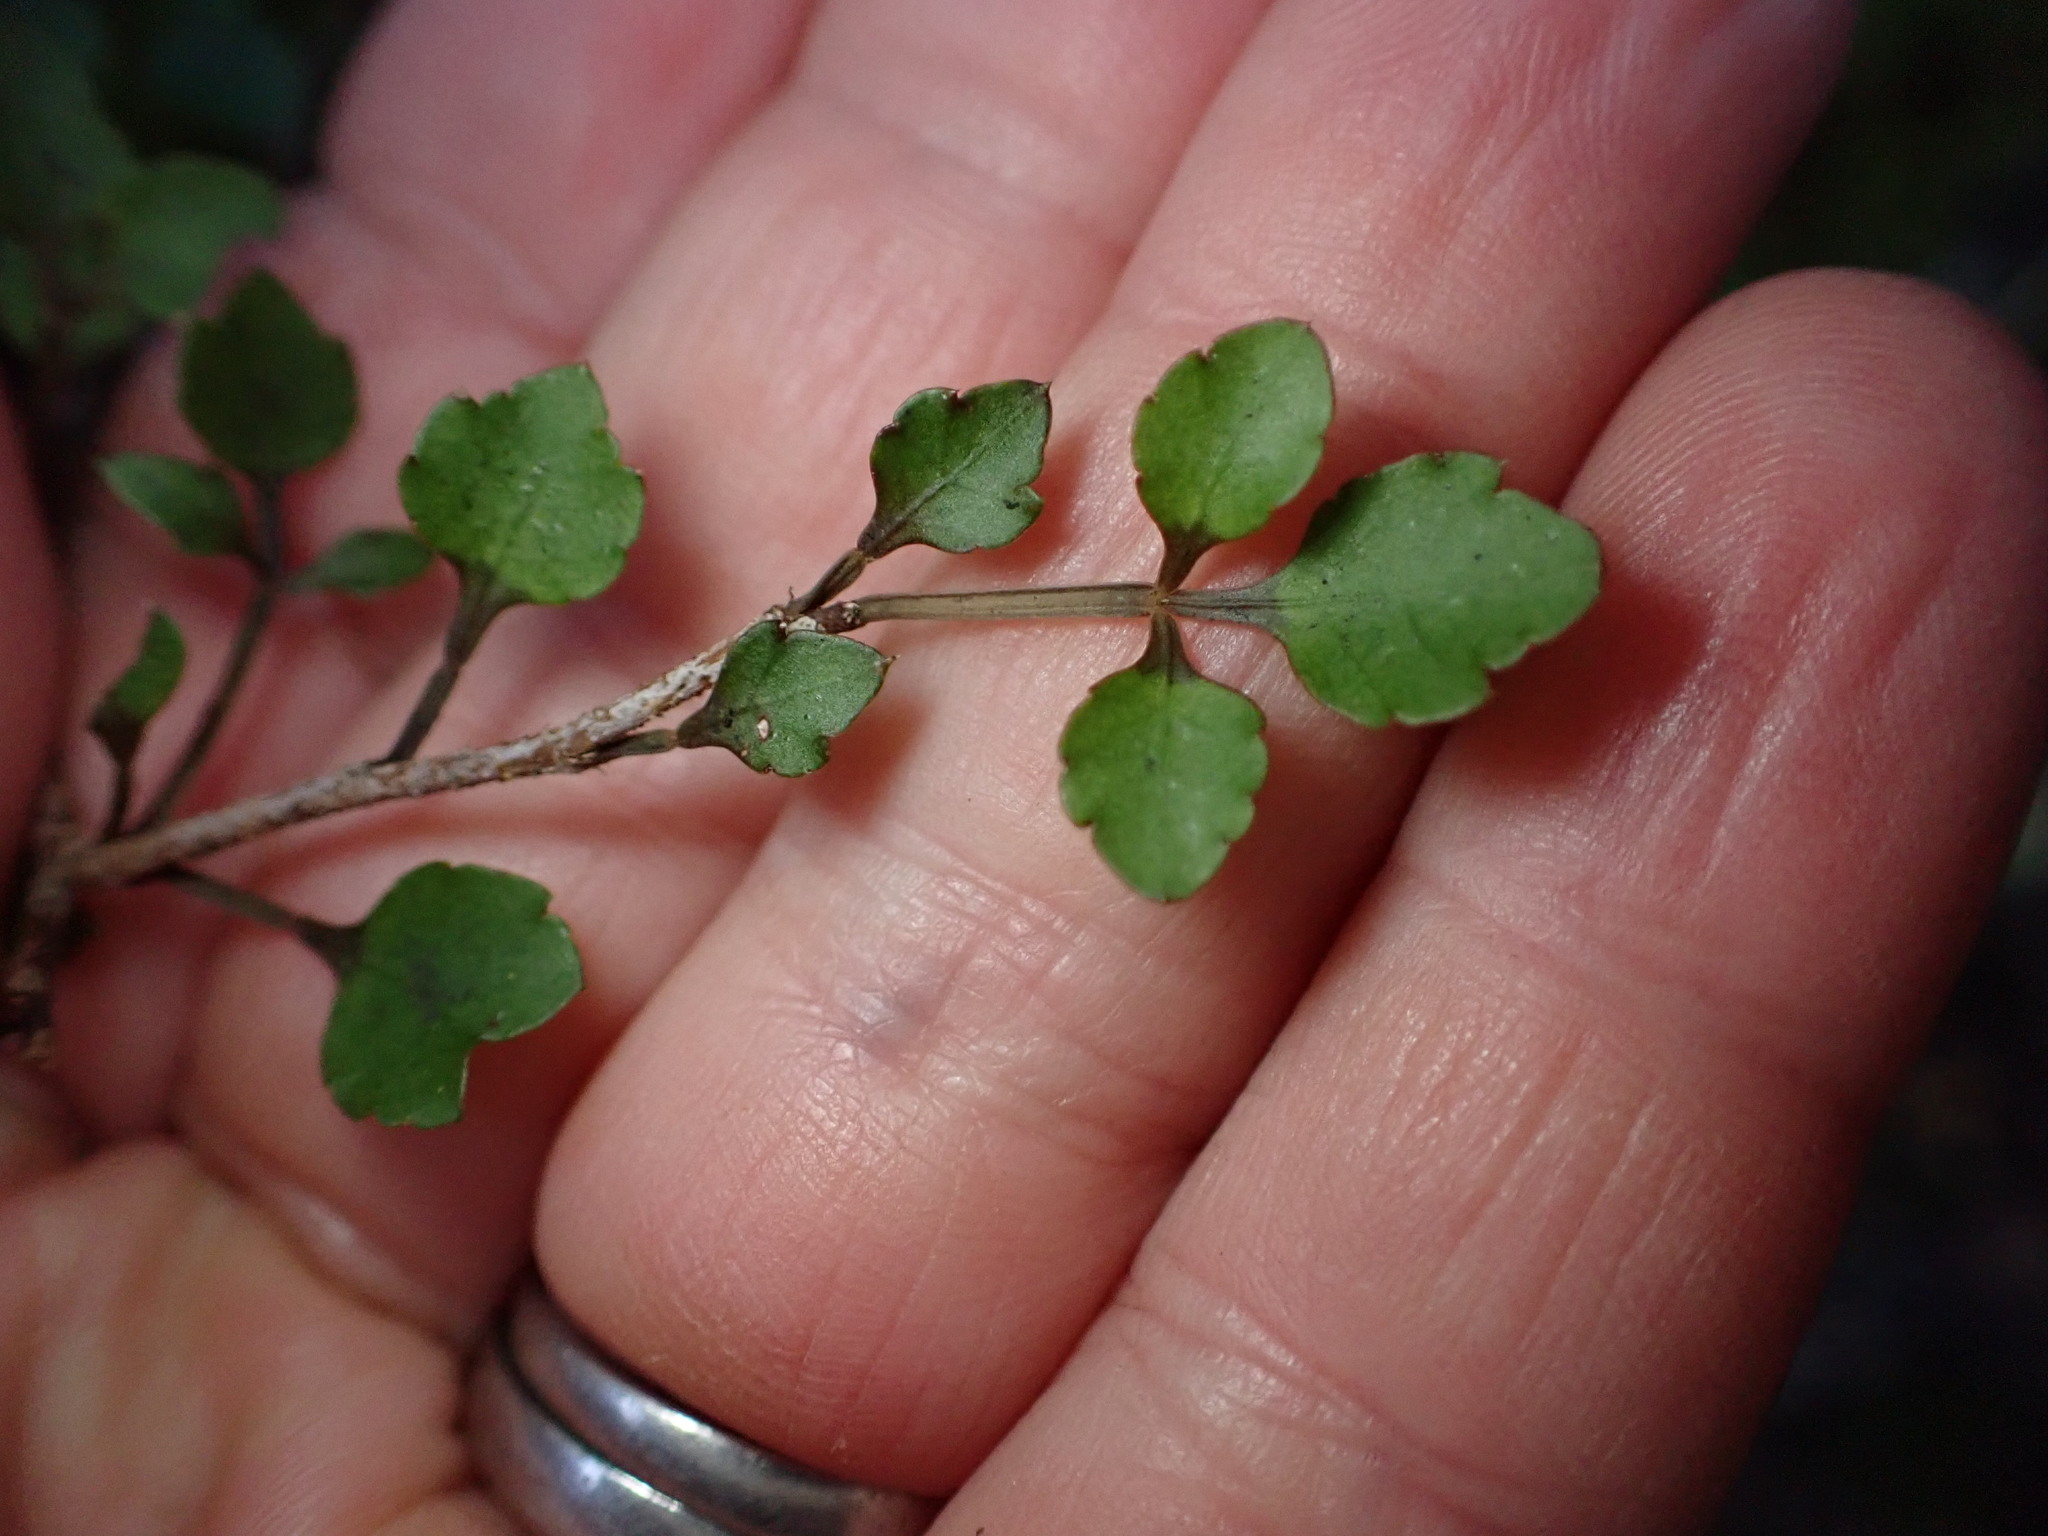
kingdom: Plantae
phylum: Tracheophyta
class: Magnoliopsida
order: Apiales
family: Araliaceae
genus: Raukaua
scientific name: Raukaua anomalus
